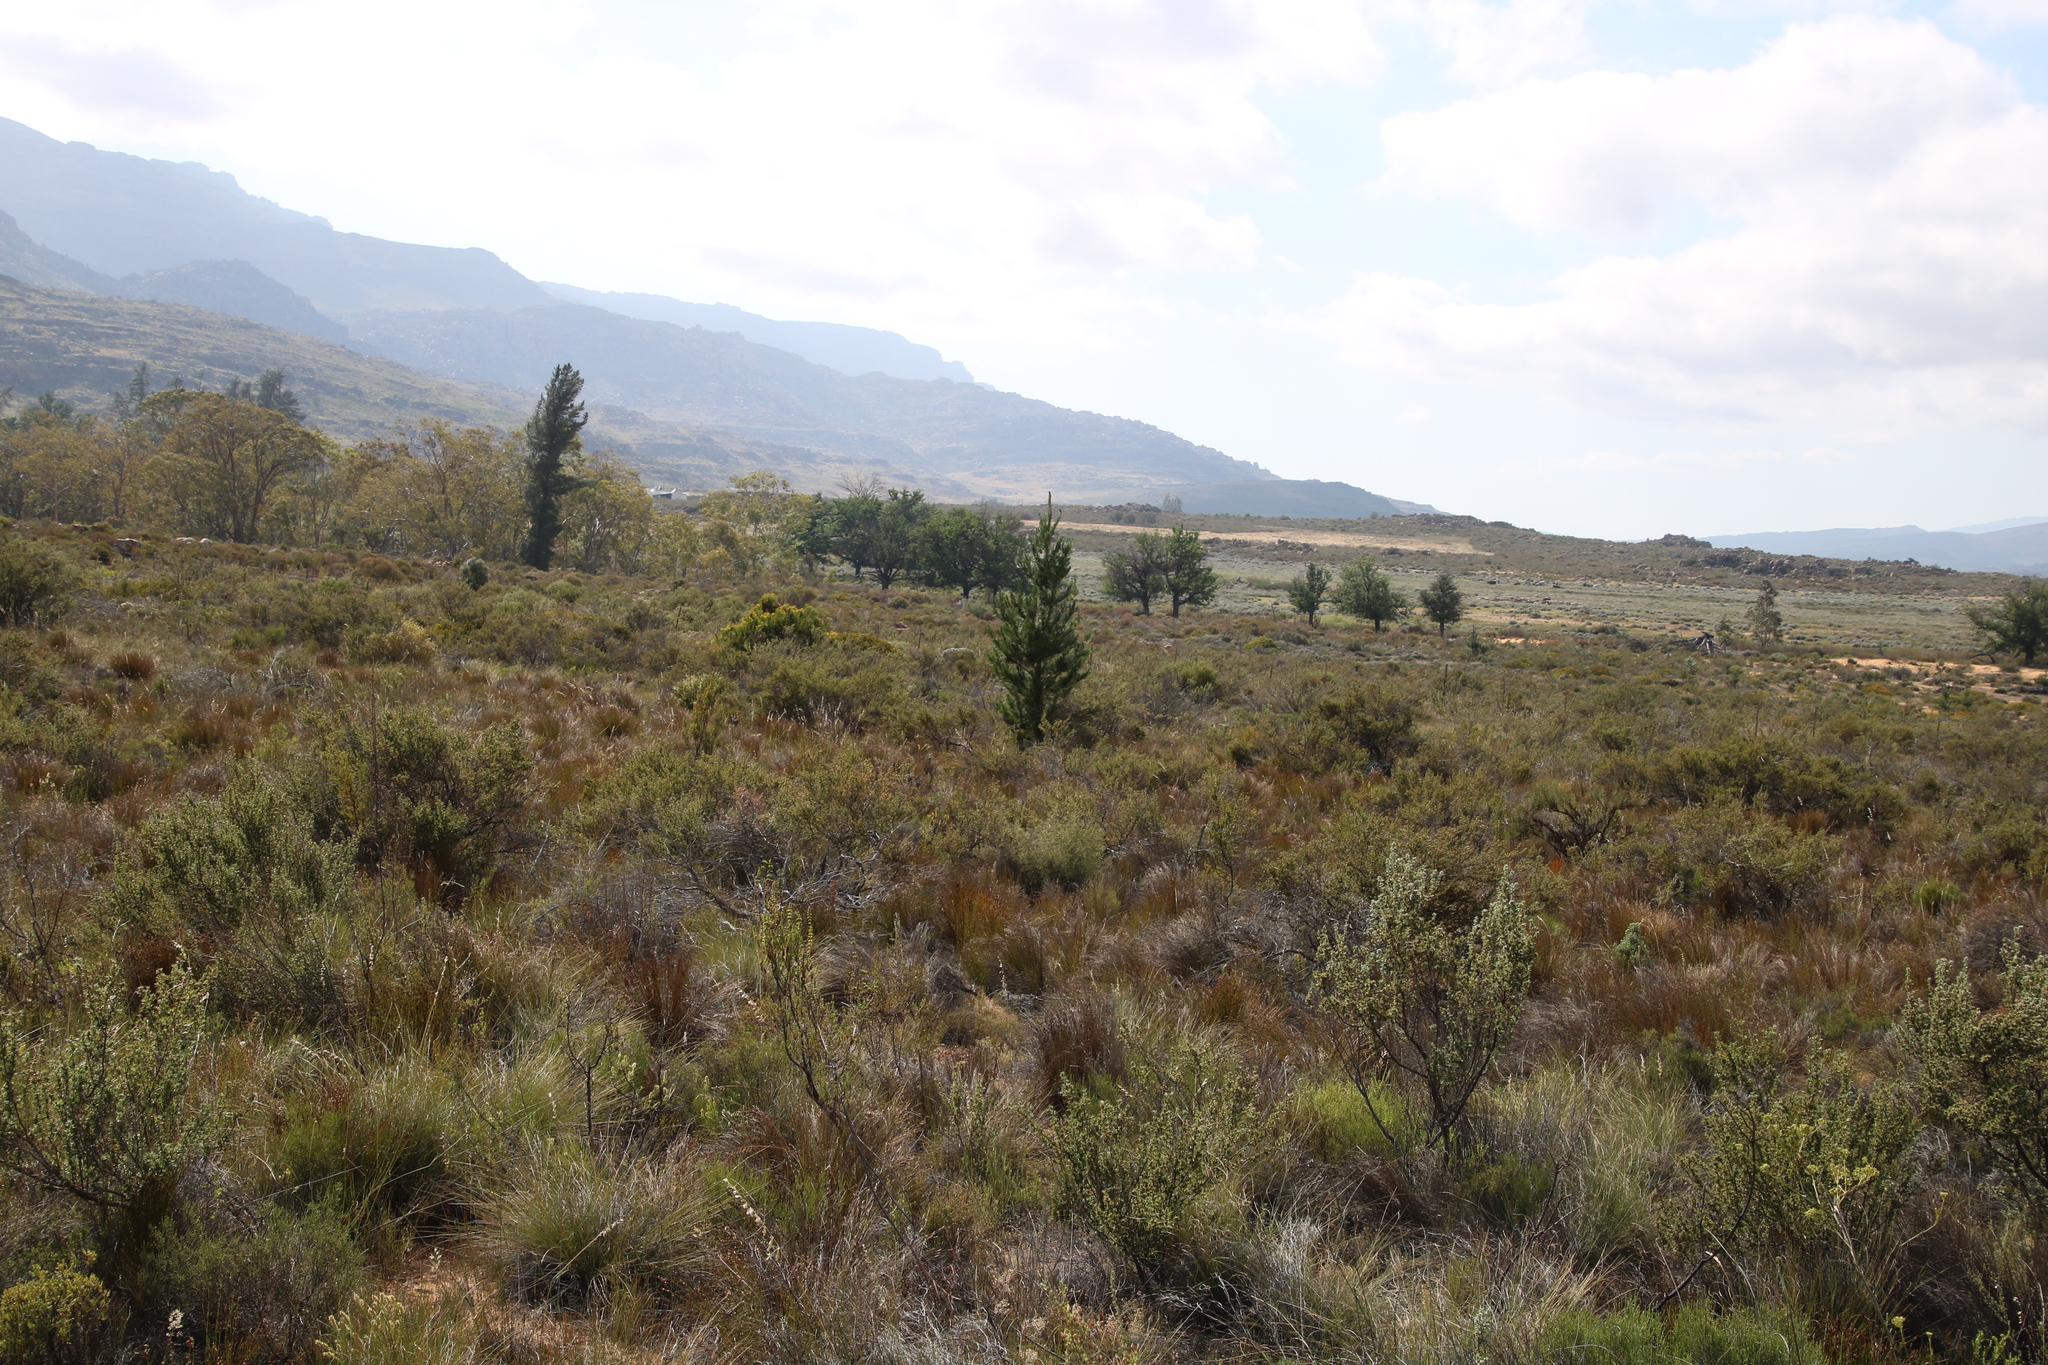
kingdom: Plantae
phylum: Tracheophyta
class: Pinopsida
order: Pinales
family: Pinaceae
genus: Pinus
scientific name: Pinus pinaster
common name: Maritime pine
